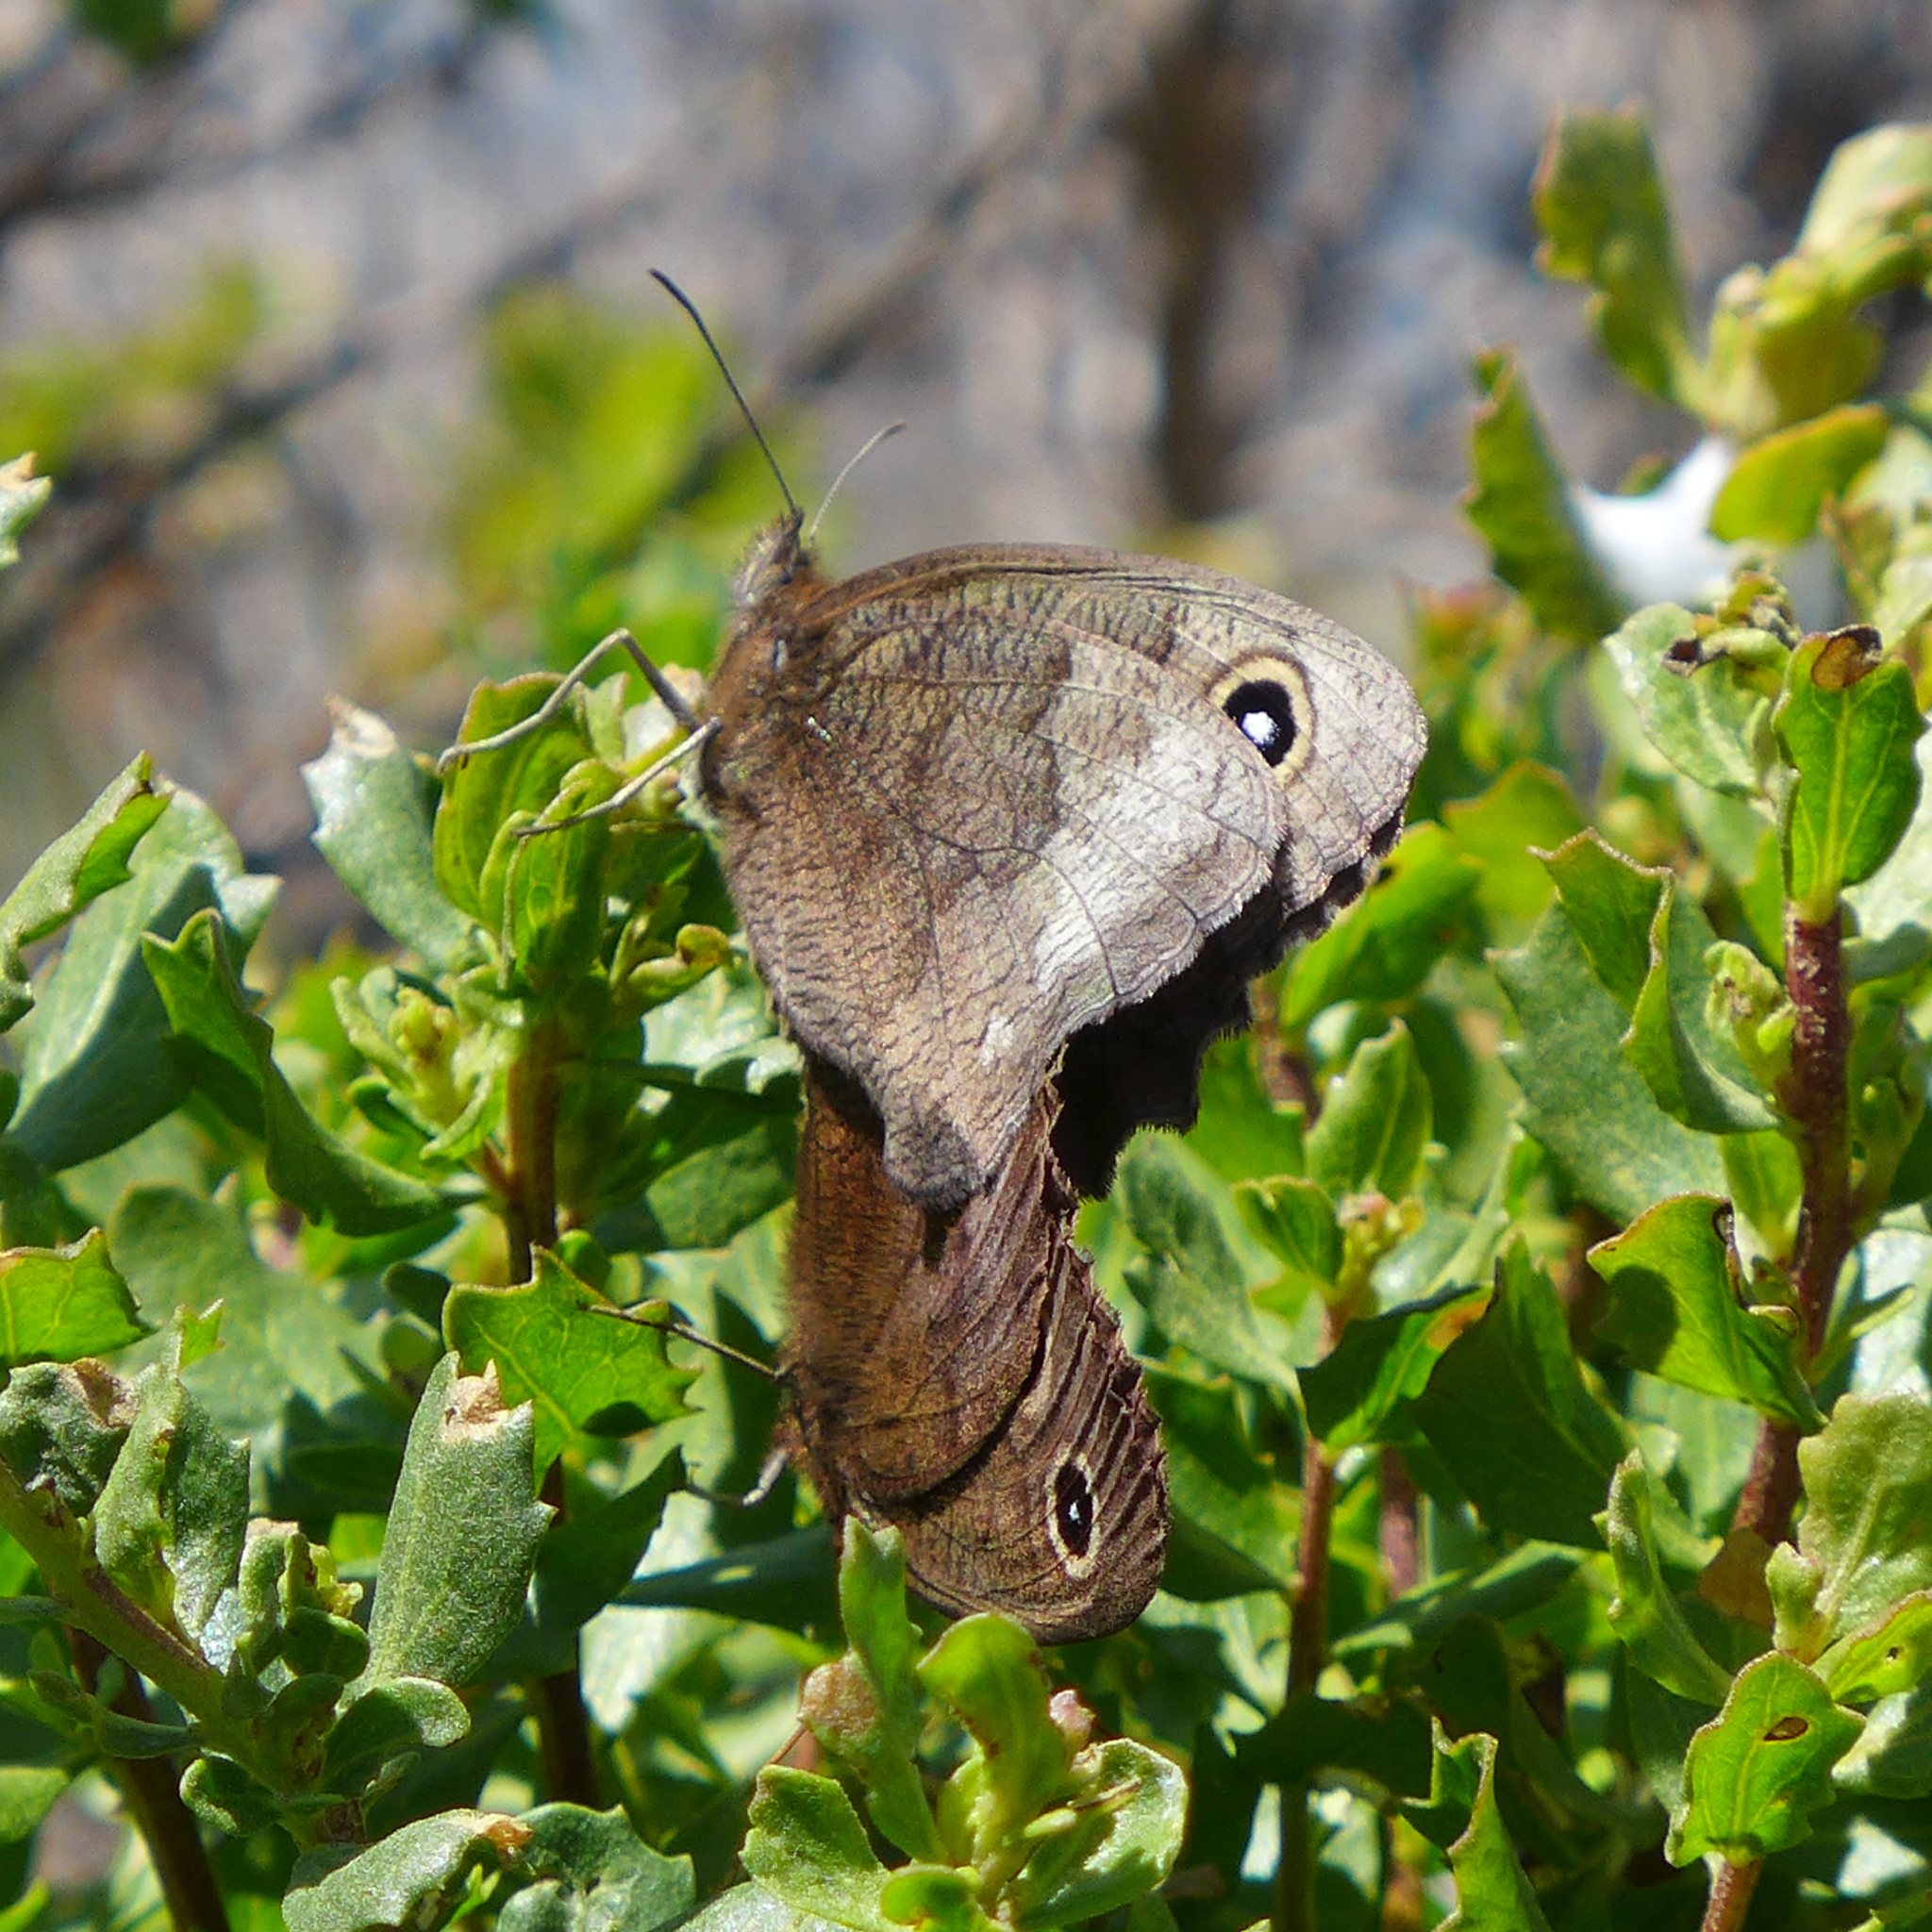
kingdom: Animalia
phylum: Arthropoda
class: Insecta
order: Lepidoptera
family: Nymphalidae
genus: Cercyonis
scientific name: Cercyonis pegala
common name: Common wood-nymph
